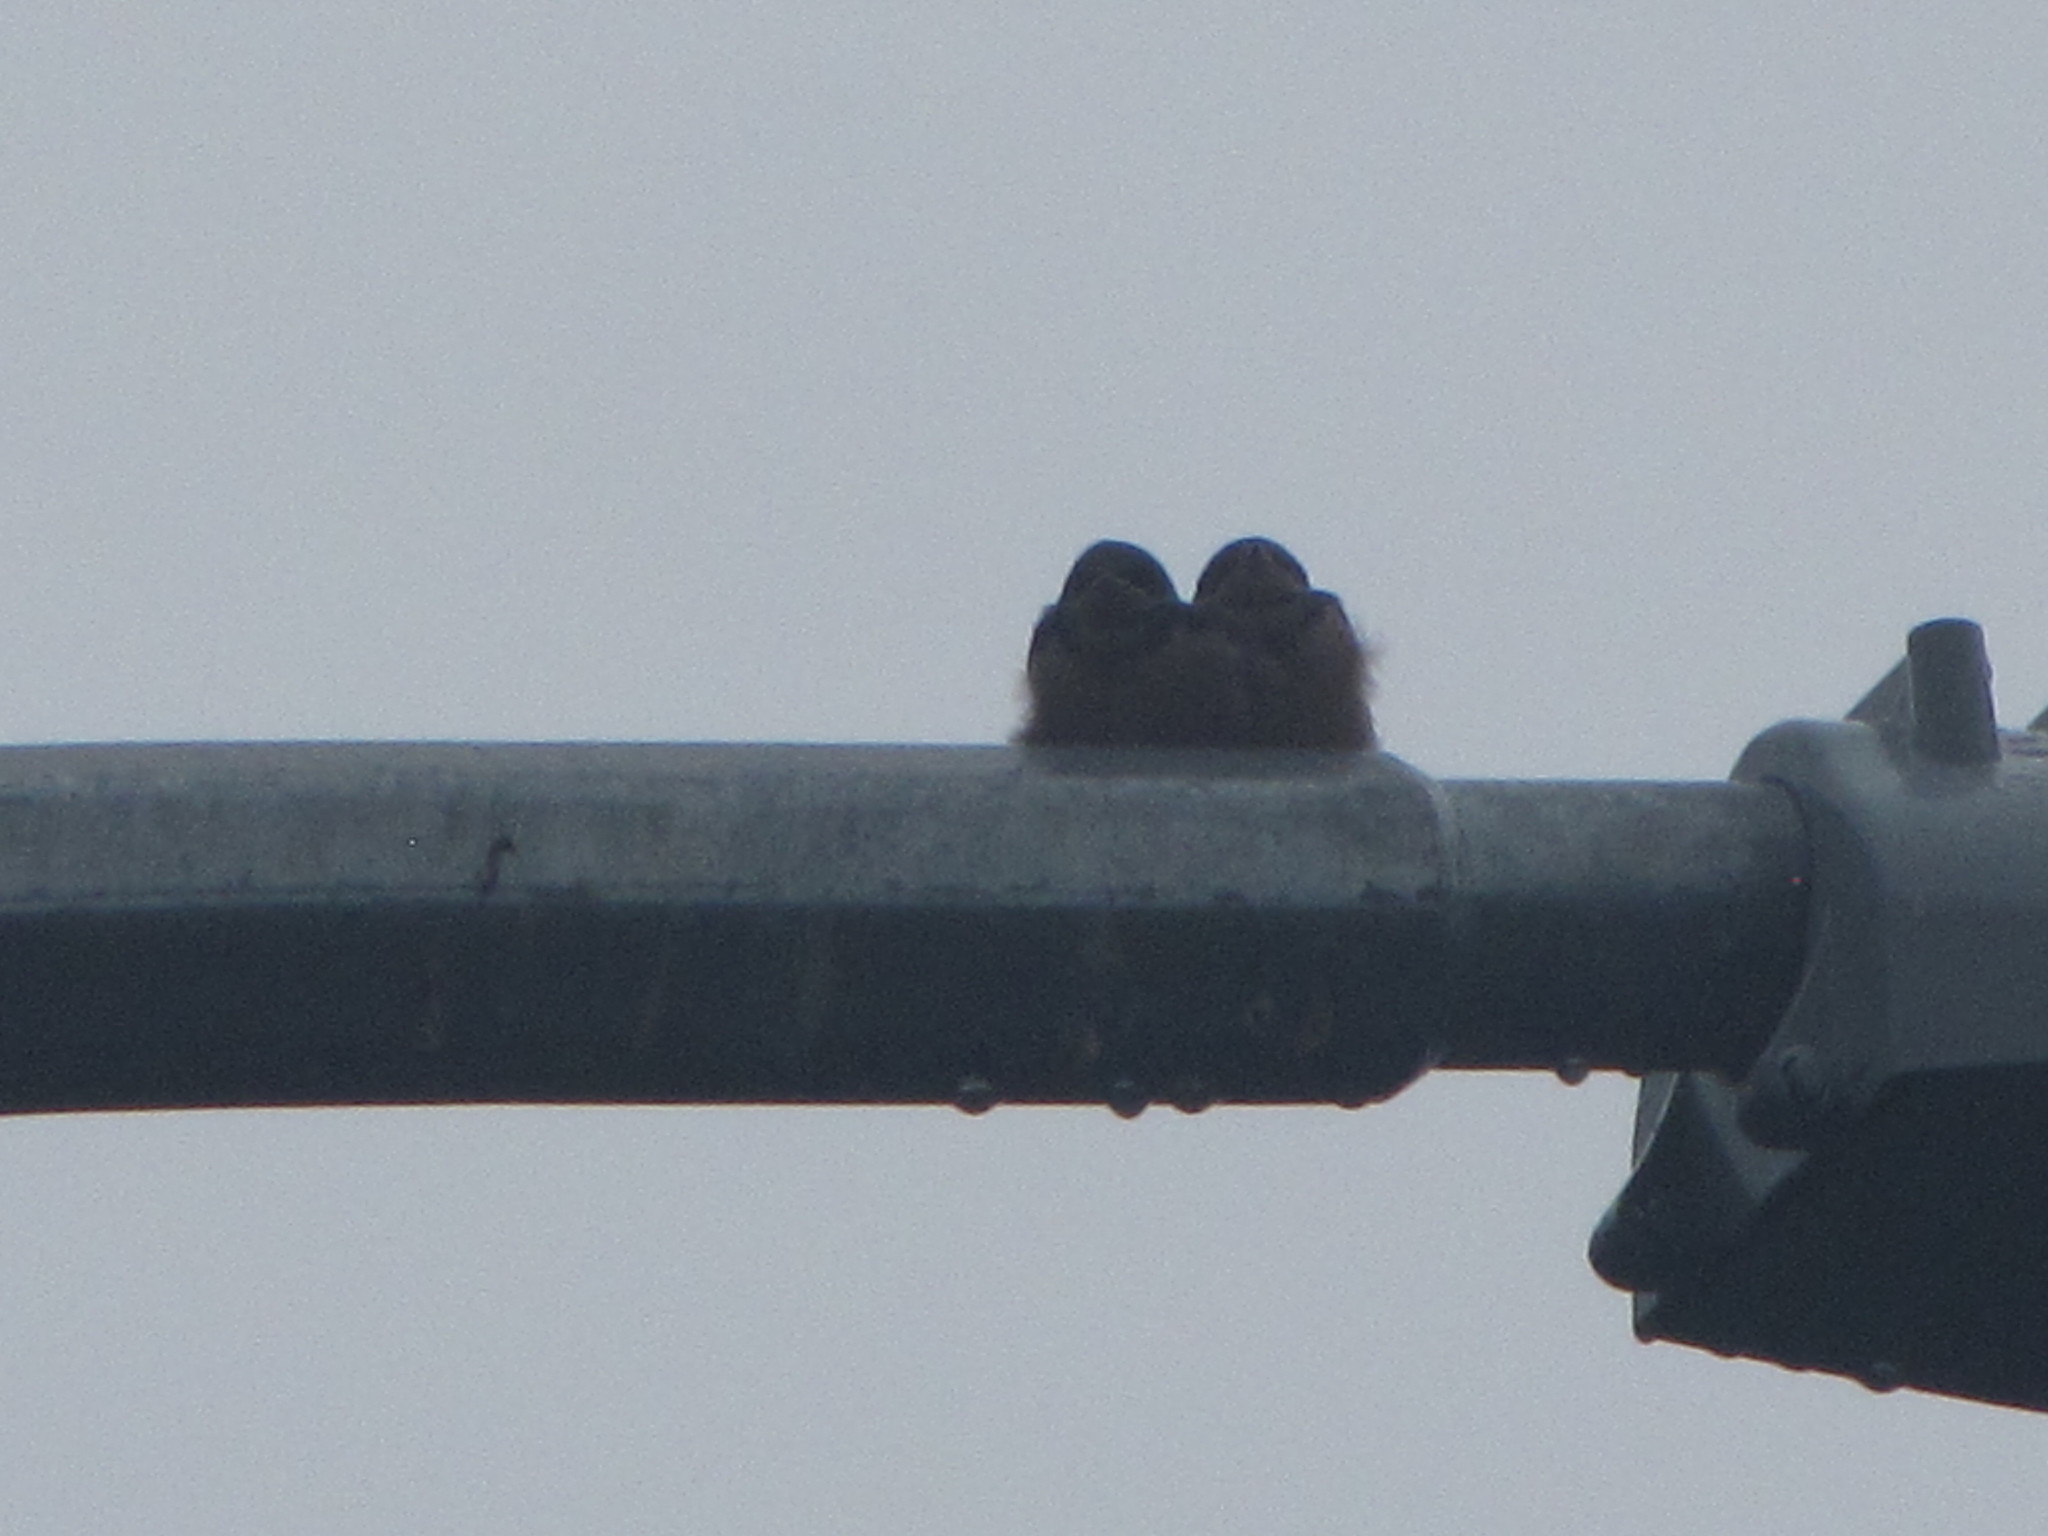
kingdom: Animalia
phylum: Chordata
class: Aves
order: Passeriformes
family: Hirundinidae
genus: Hirundo
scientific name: Hirundo rustica
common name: Barn swallow
